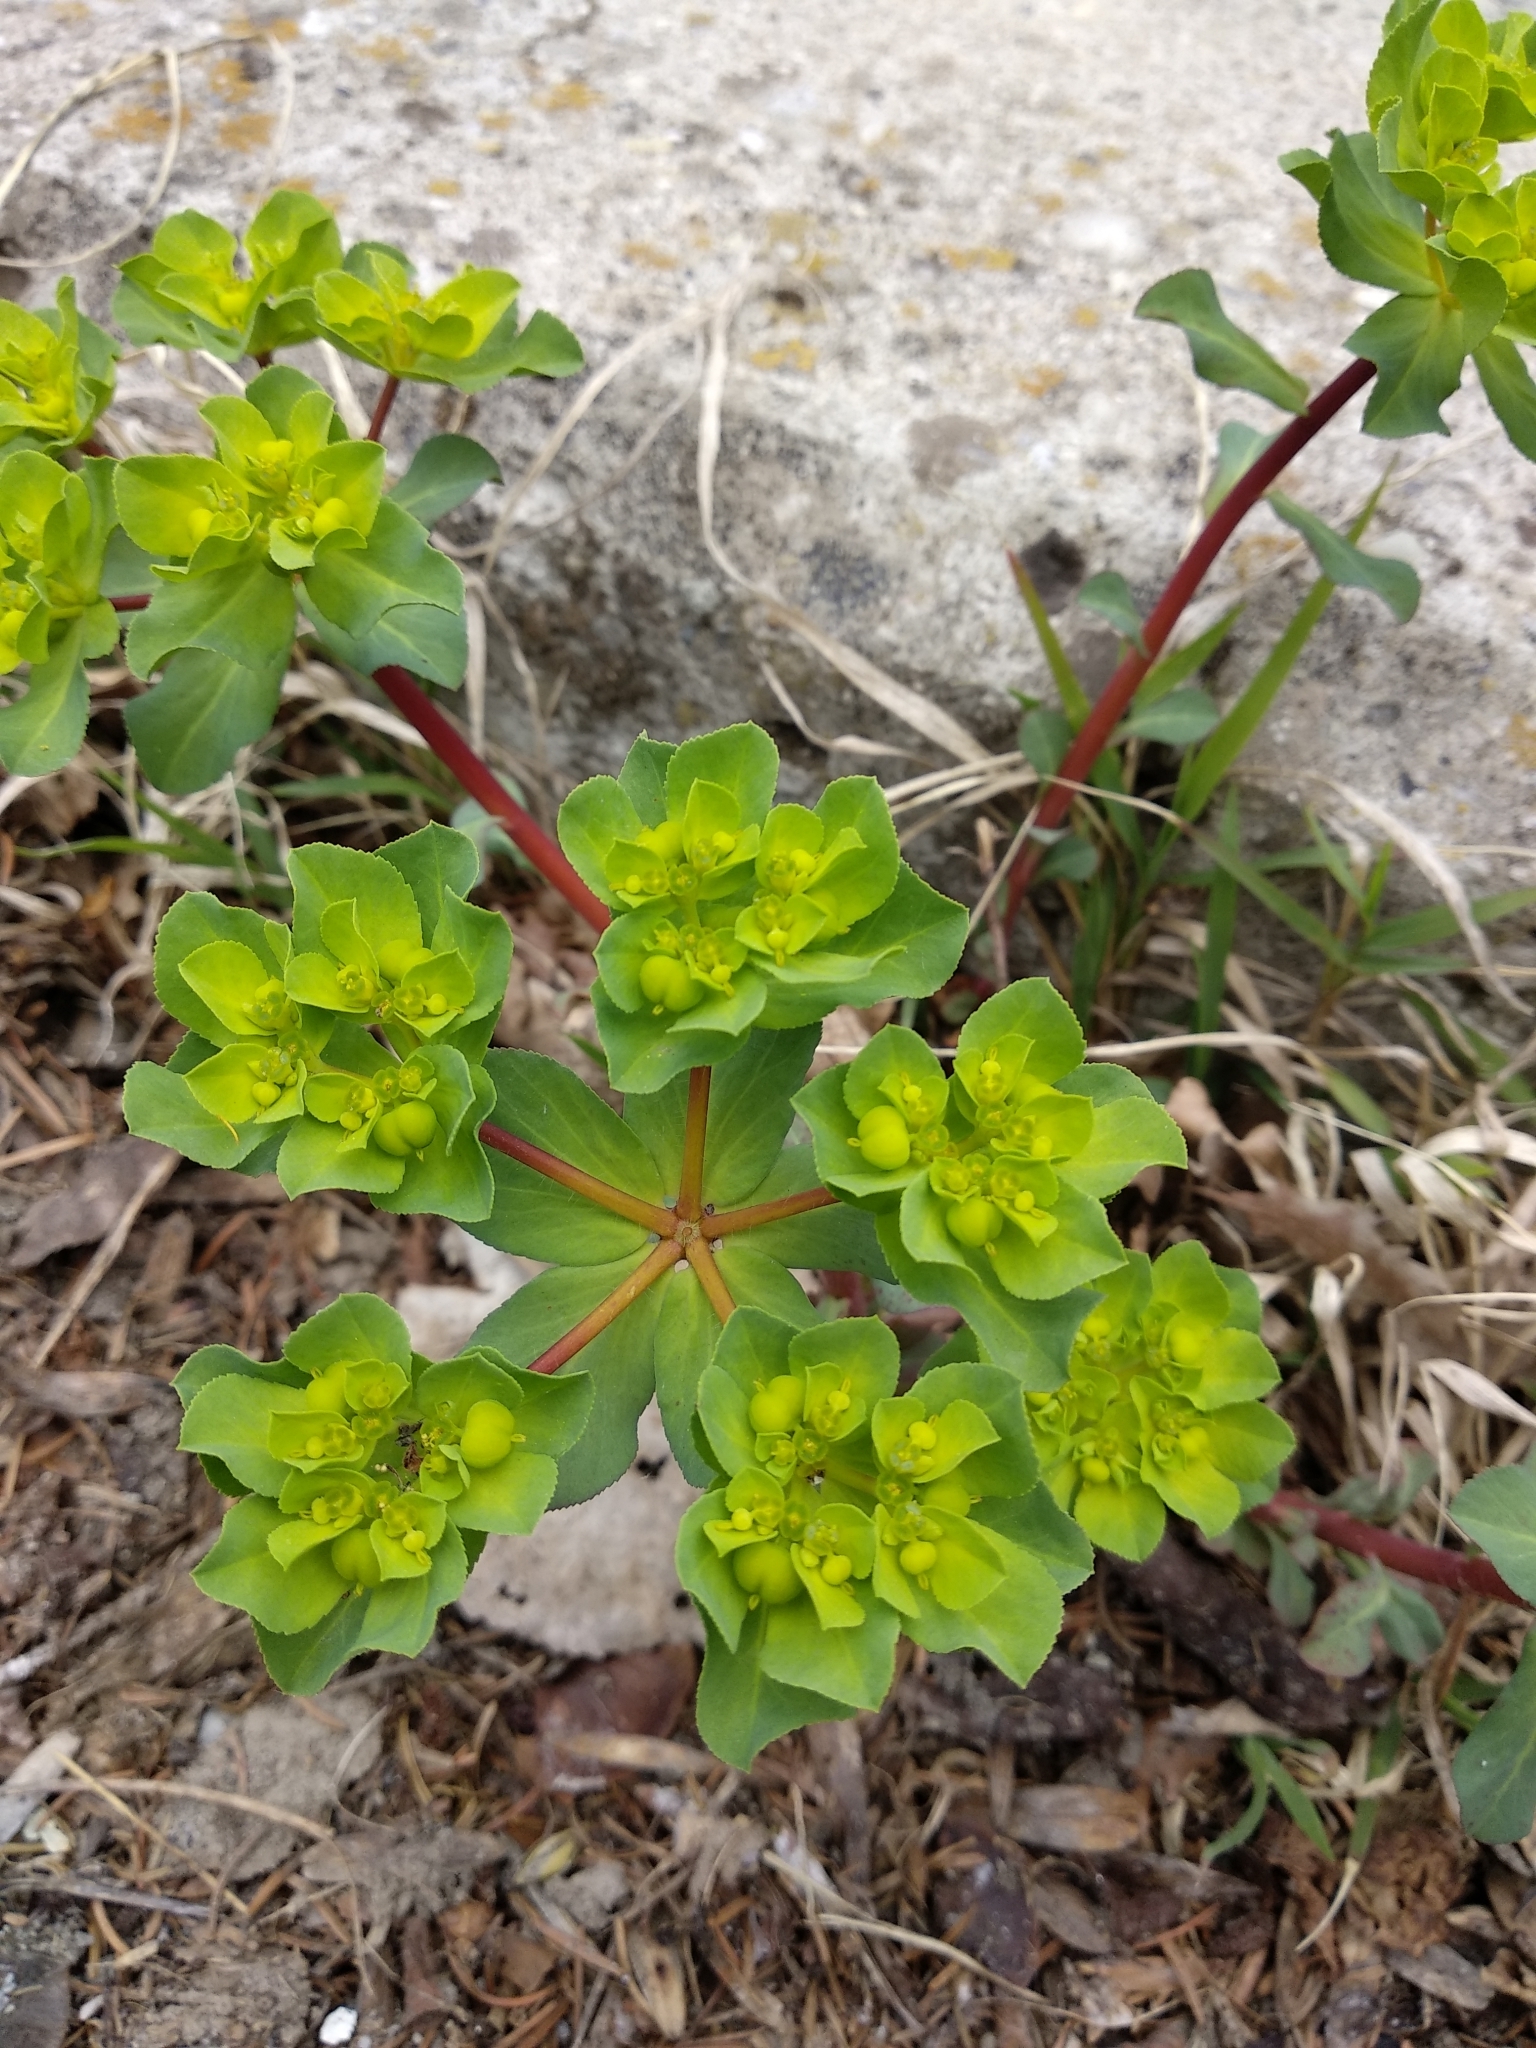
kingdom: Plantae
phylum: Tracheophyta
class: Magnoliopsida
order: Malpighiales
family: Euphorbiaceae
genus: Euphorbia
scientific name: Euphorbia helioscopia
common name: Sun spurge
